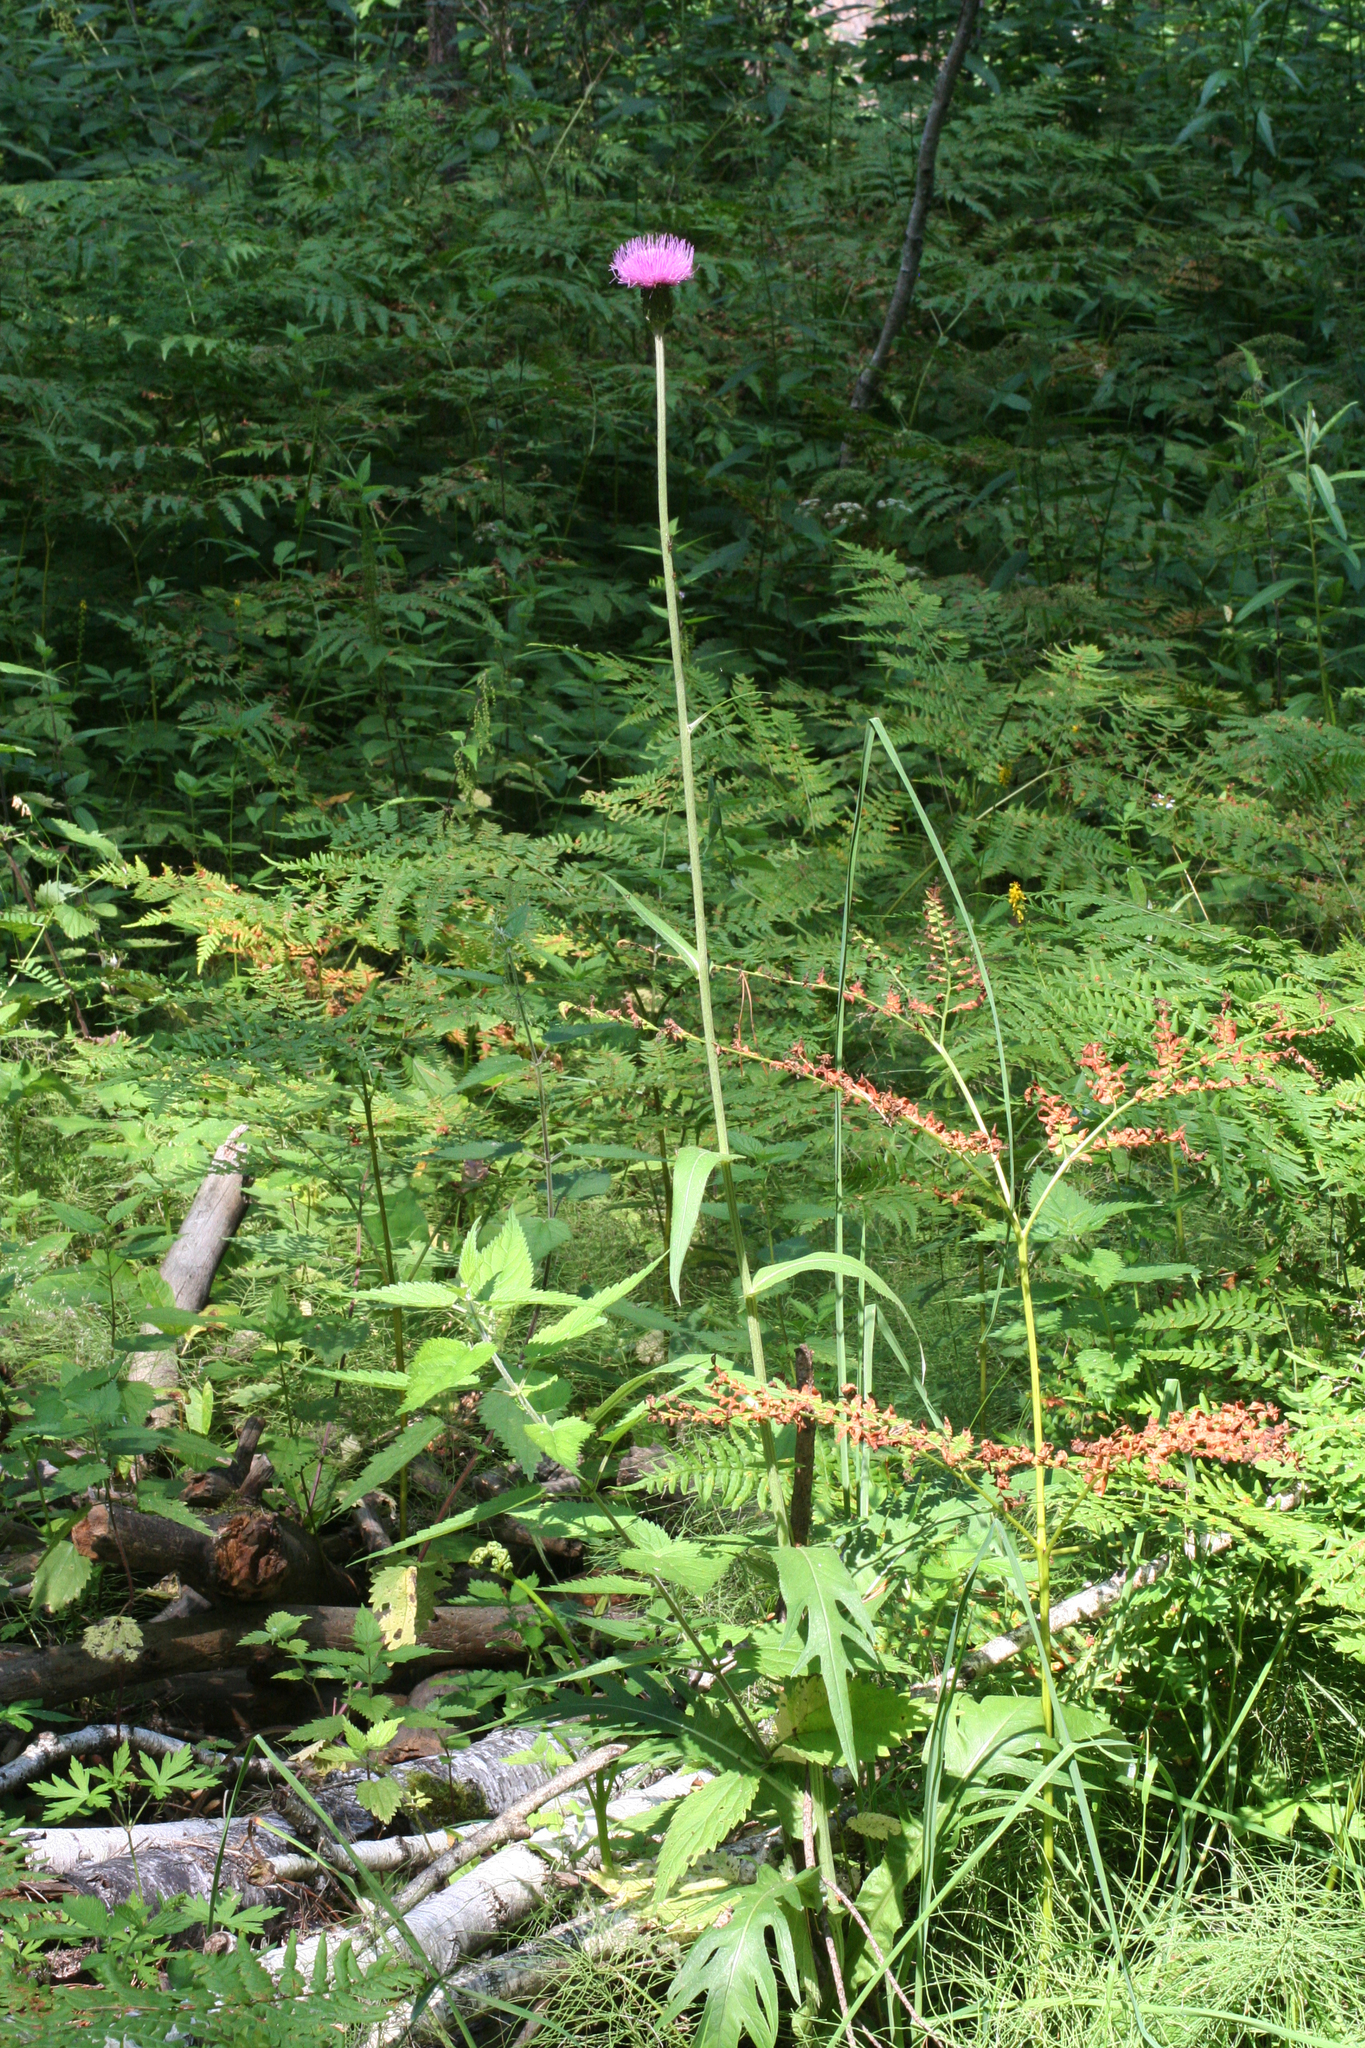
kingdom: Plantae
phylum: Tracheophyta
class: Magnoliopsida
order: Asterales
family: Asteraceae
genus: Cirsium
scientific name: Cirsium heterophyllum
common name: Melancholy thistle
